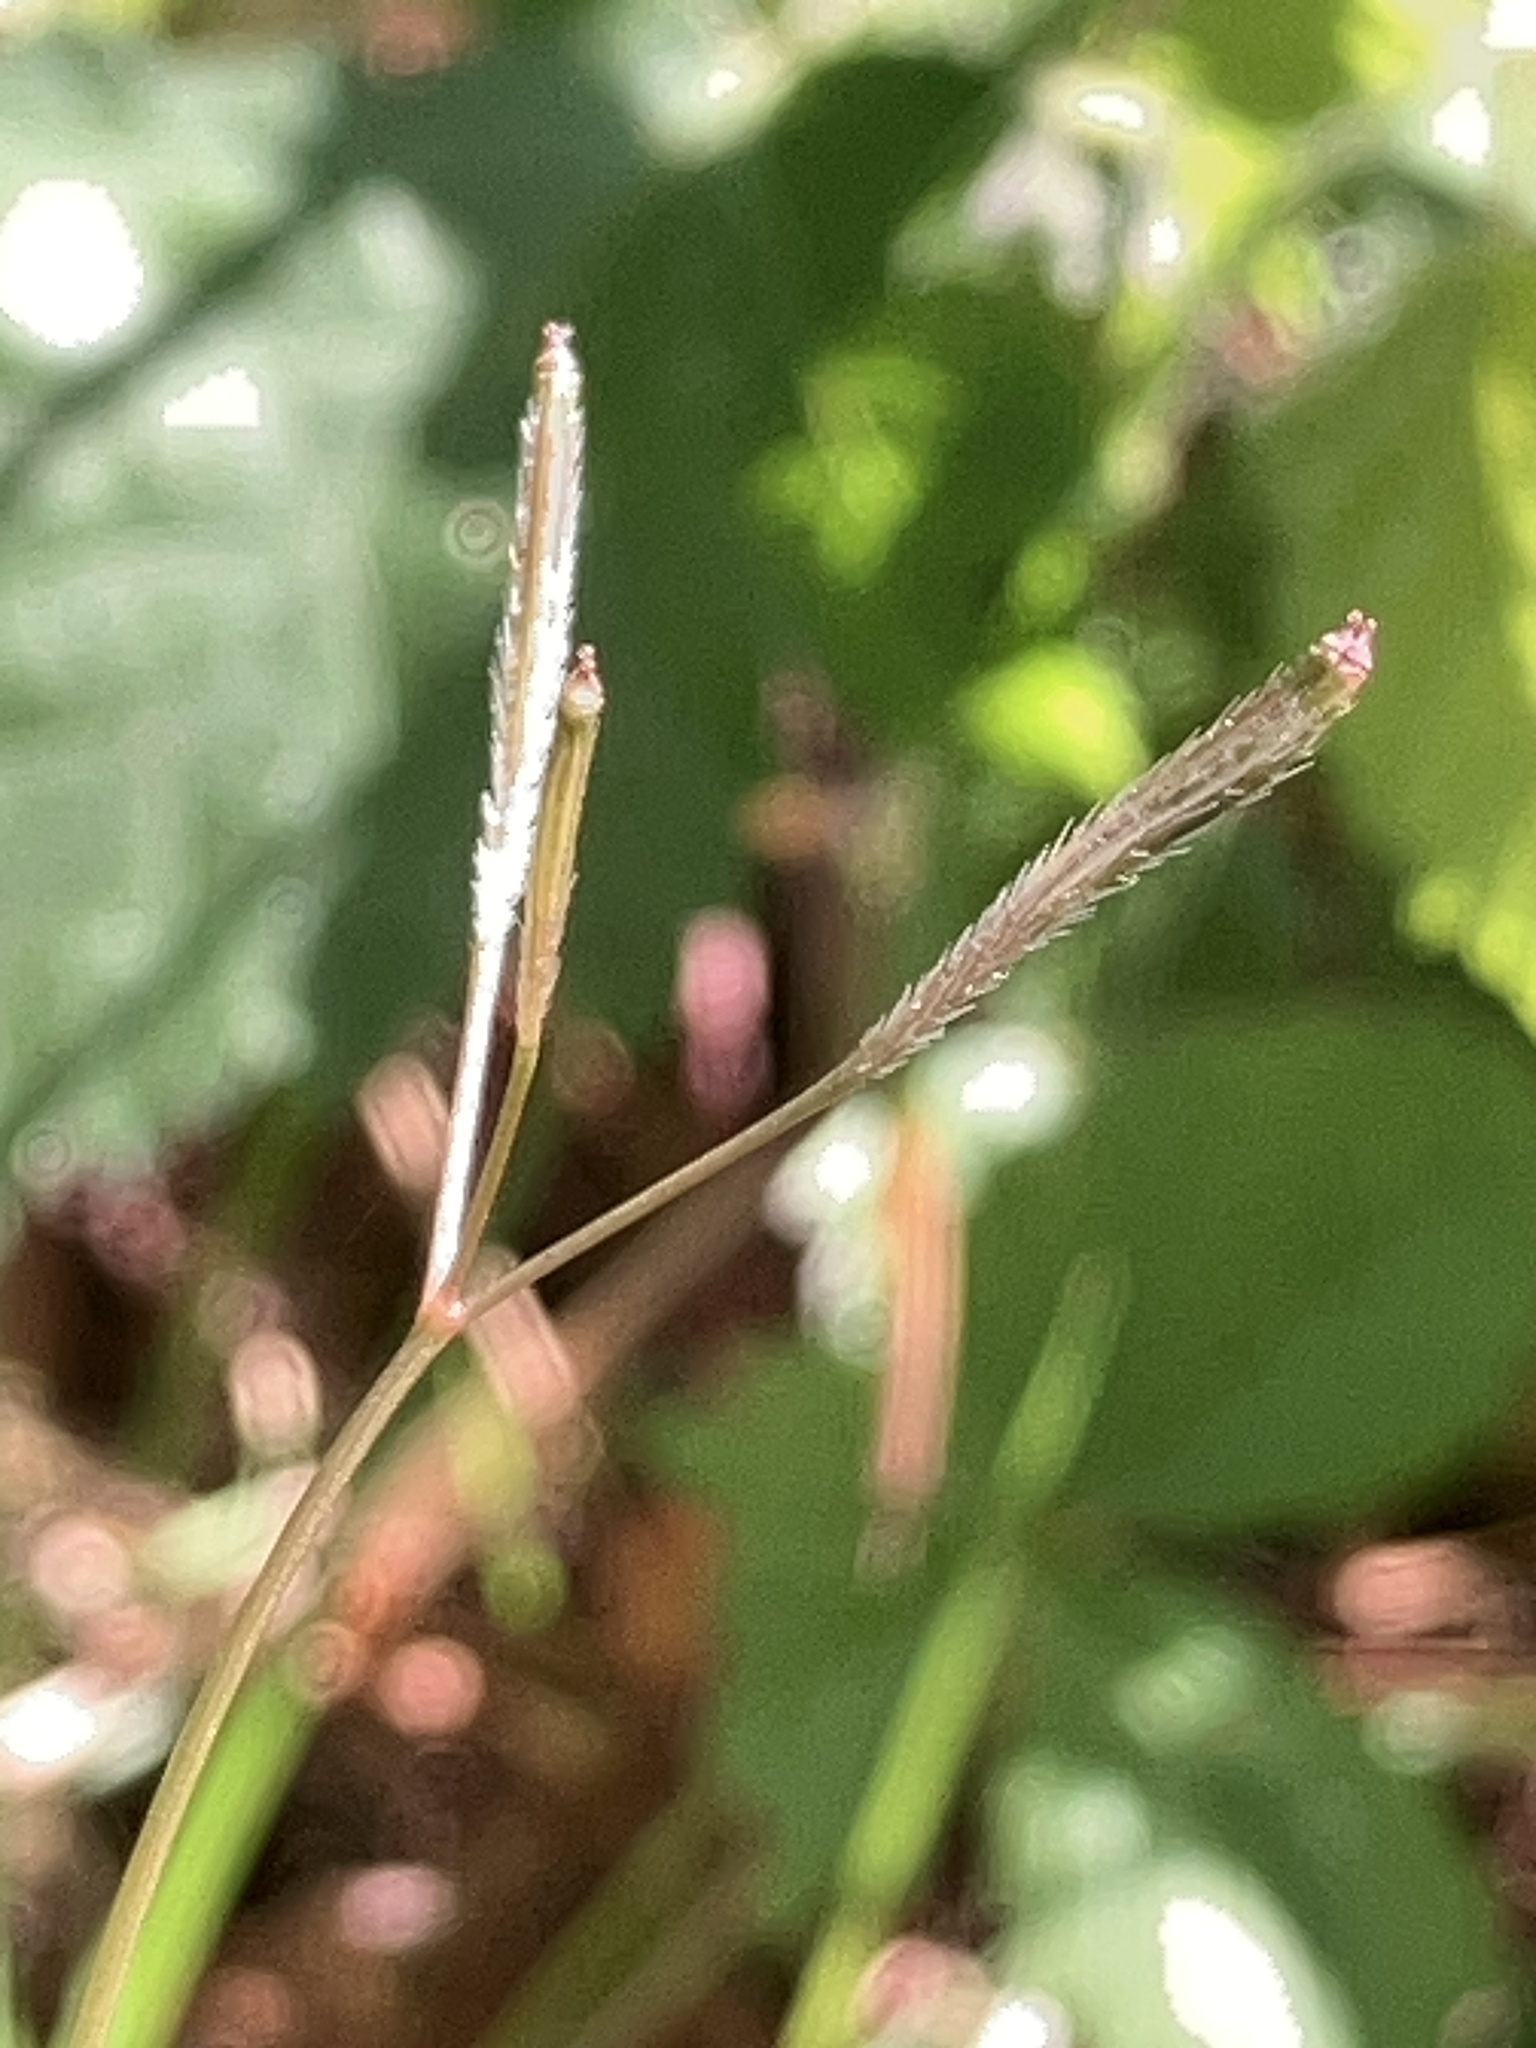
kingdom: Plantae
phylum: Tracheophyta
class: Magnoliopsida
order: Apiales
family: Apiaceae
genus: Osmorhiza
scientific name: Osmorhiza berteroi
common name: Mountain sweet cicely
